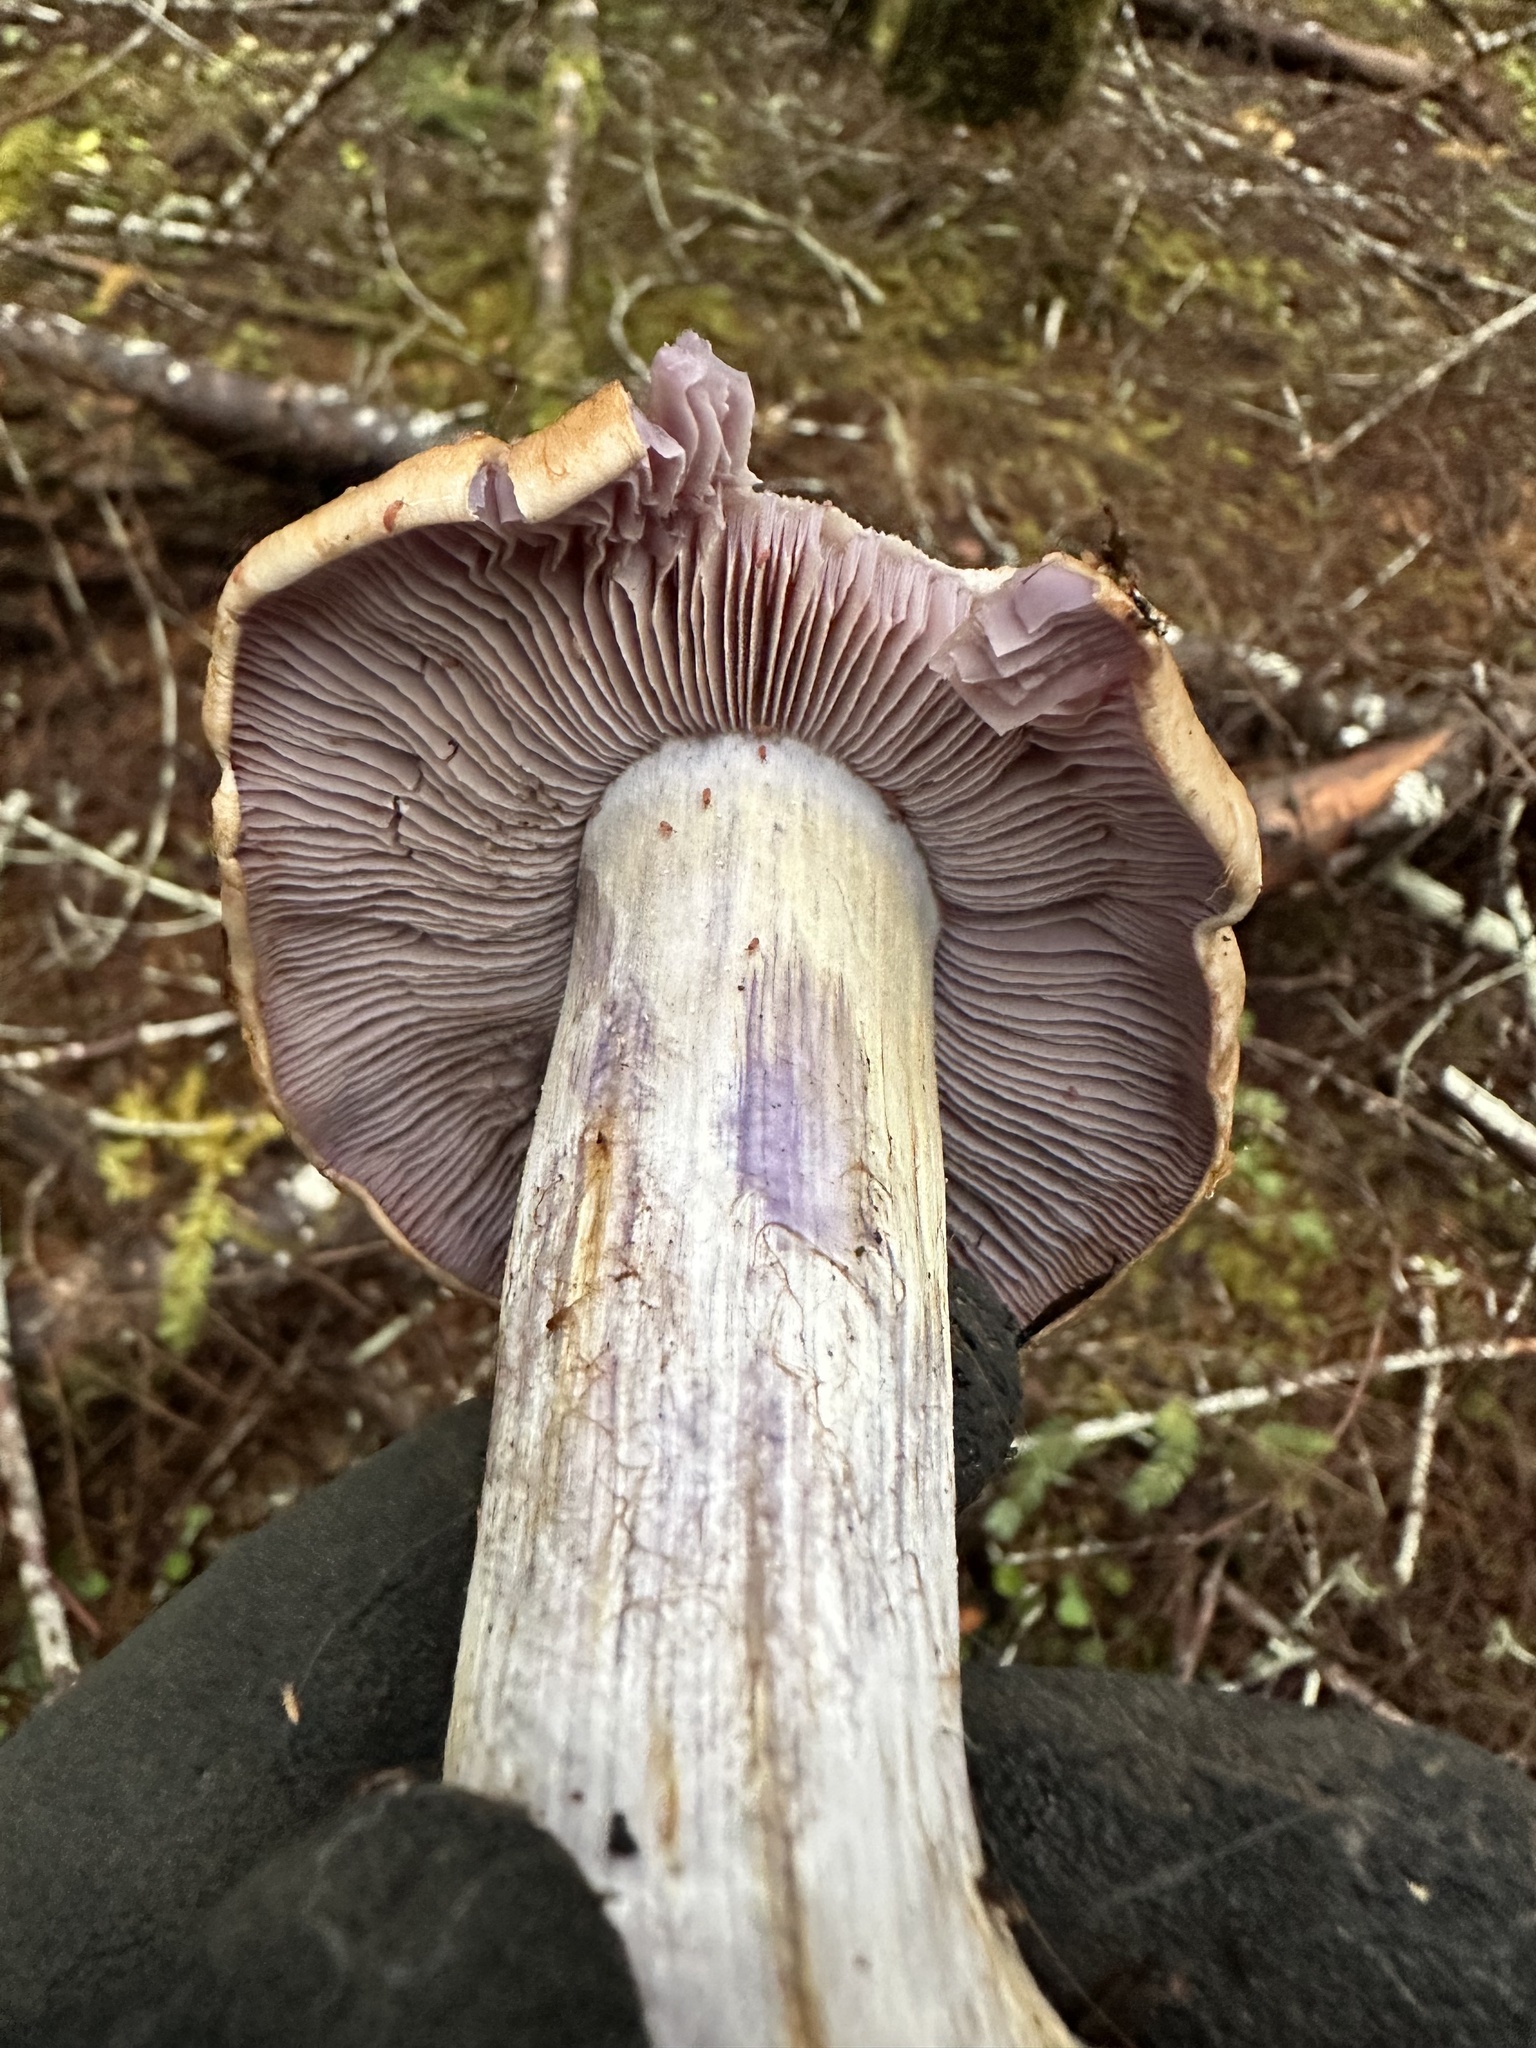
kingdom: Fungi
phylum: Basidiomycota
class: Agaricomycetes
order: Agaricales
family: Cortinariaceae
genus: Thaxterogaster
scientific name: Thaxterogaster riederi
